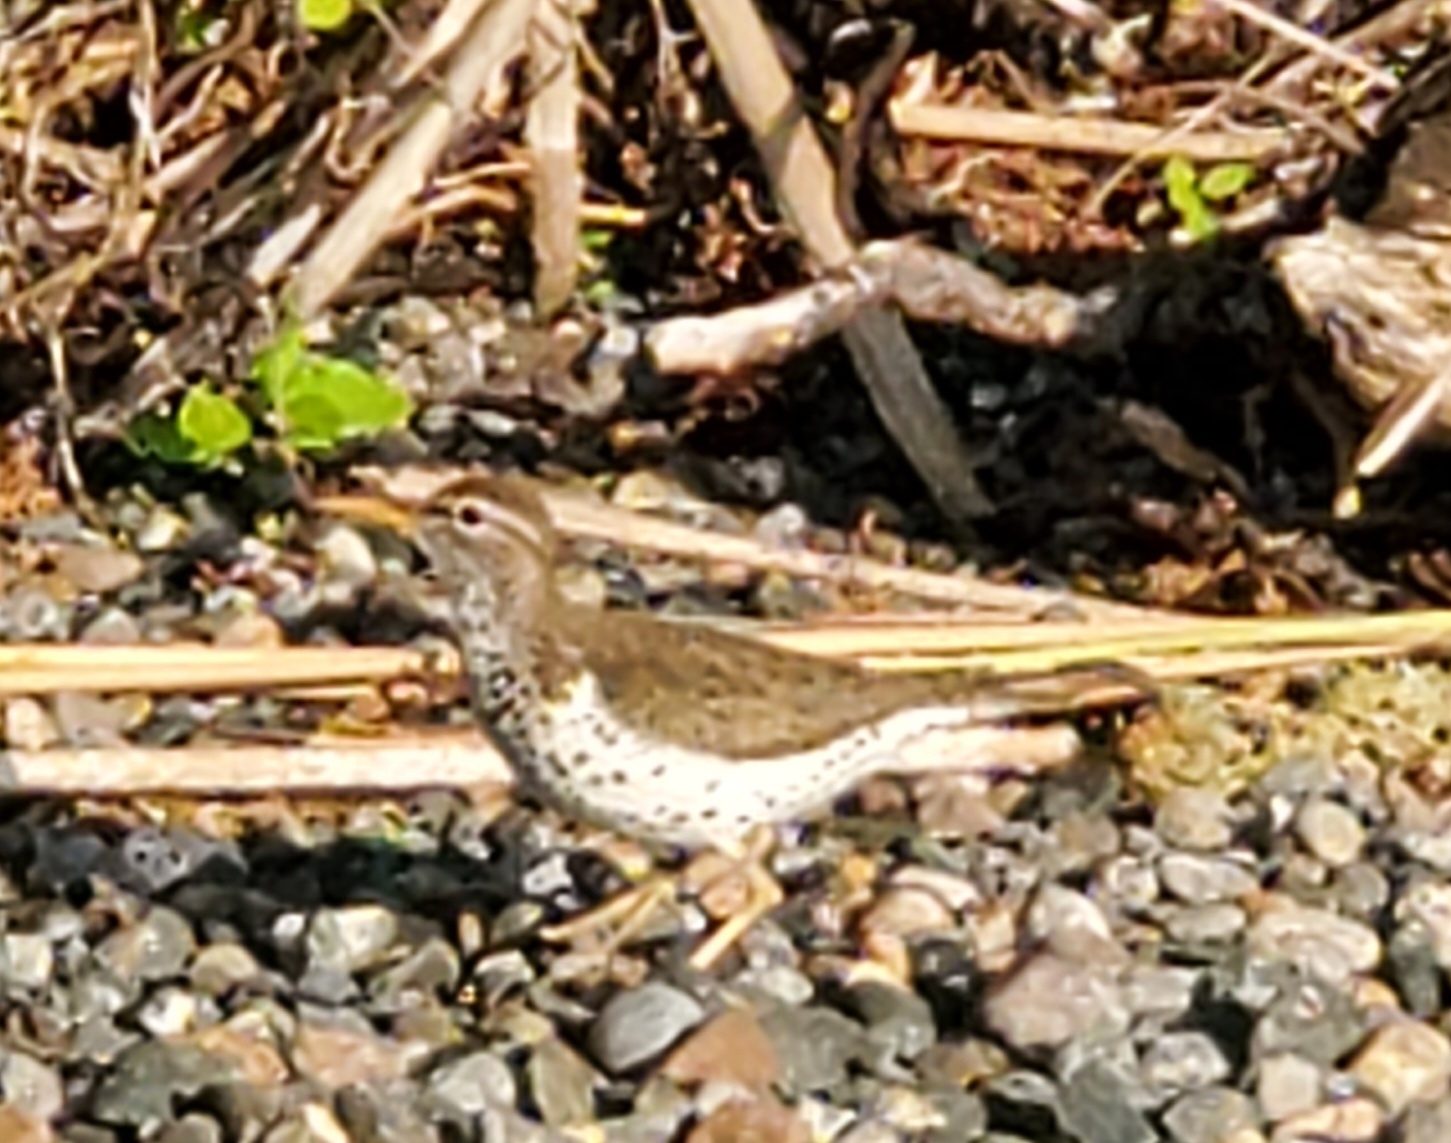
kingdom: Animalia
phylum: Chordata
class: Aves
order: Charadriiformes
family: Scolopacidae
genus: Actitis
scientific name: Actitis macularius
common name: Spotted sandpiper
